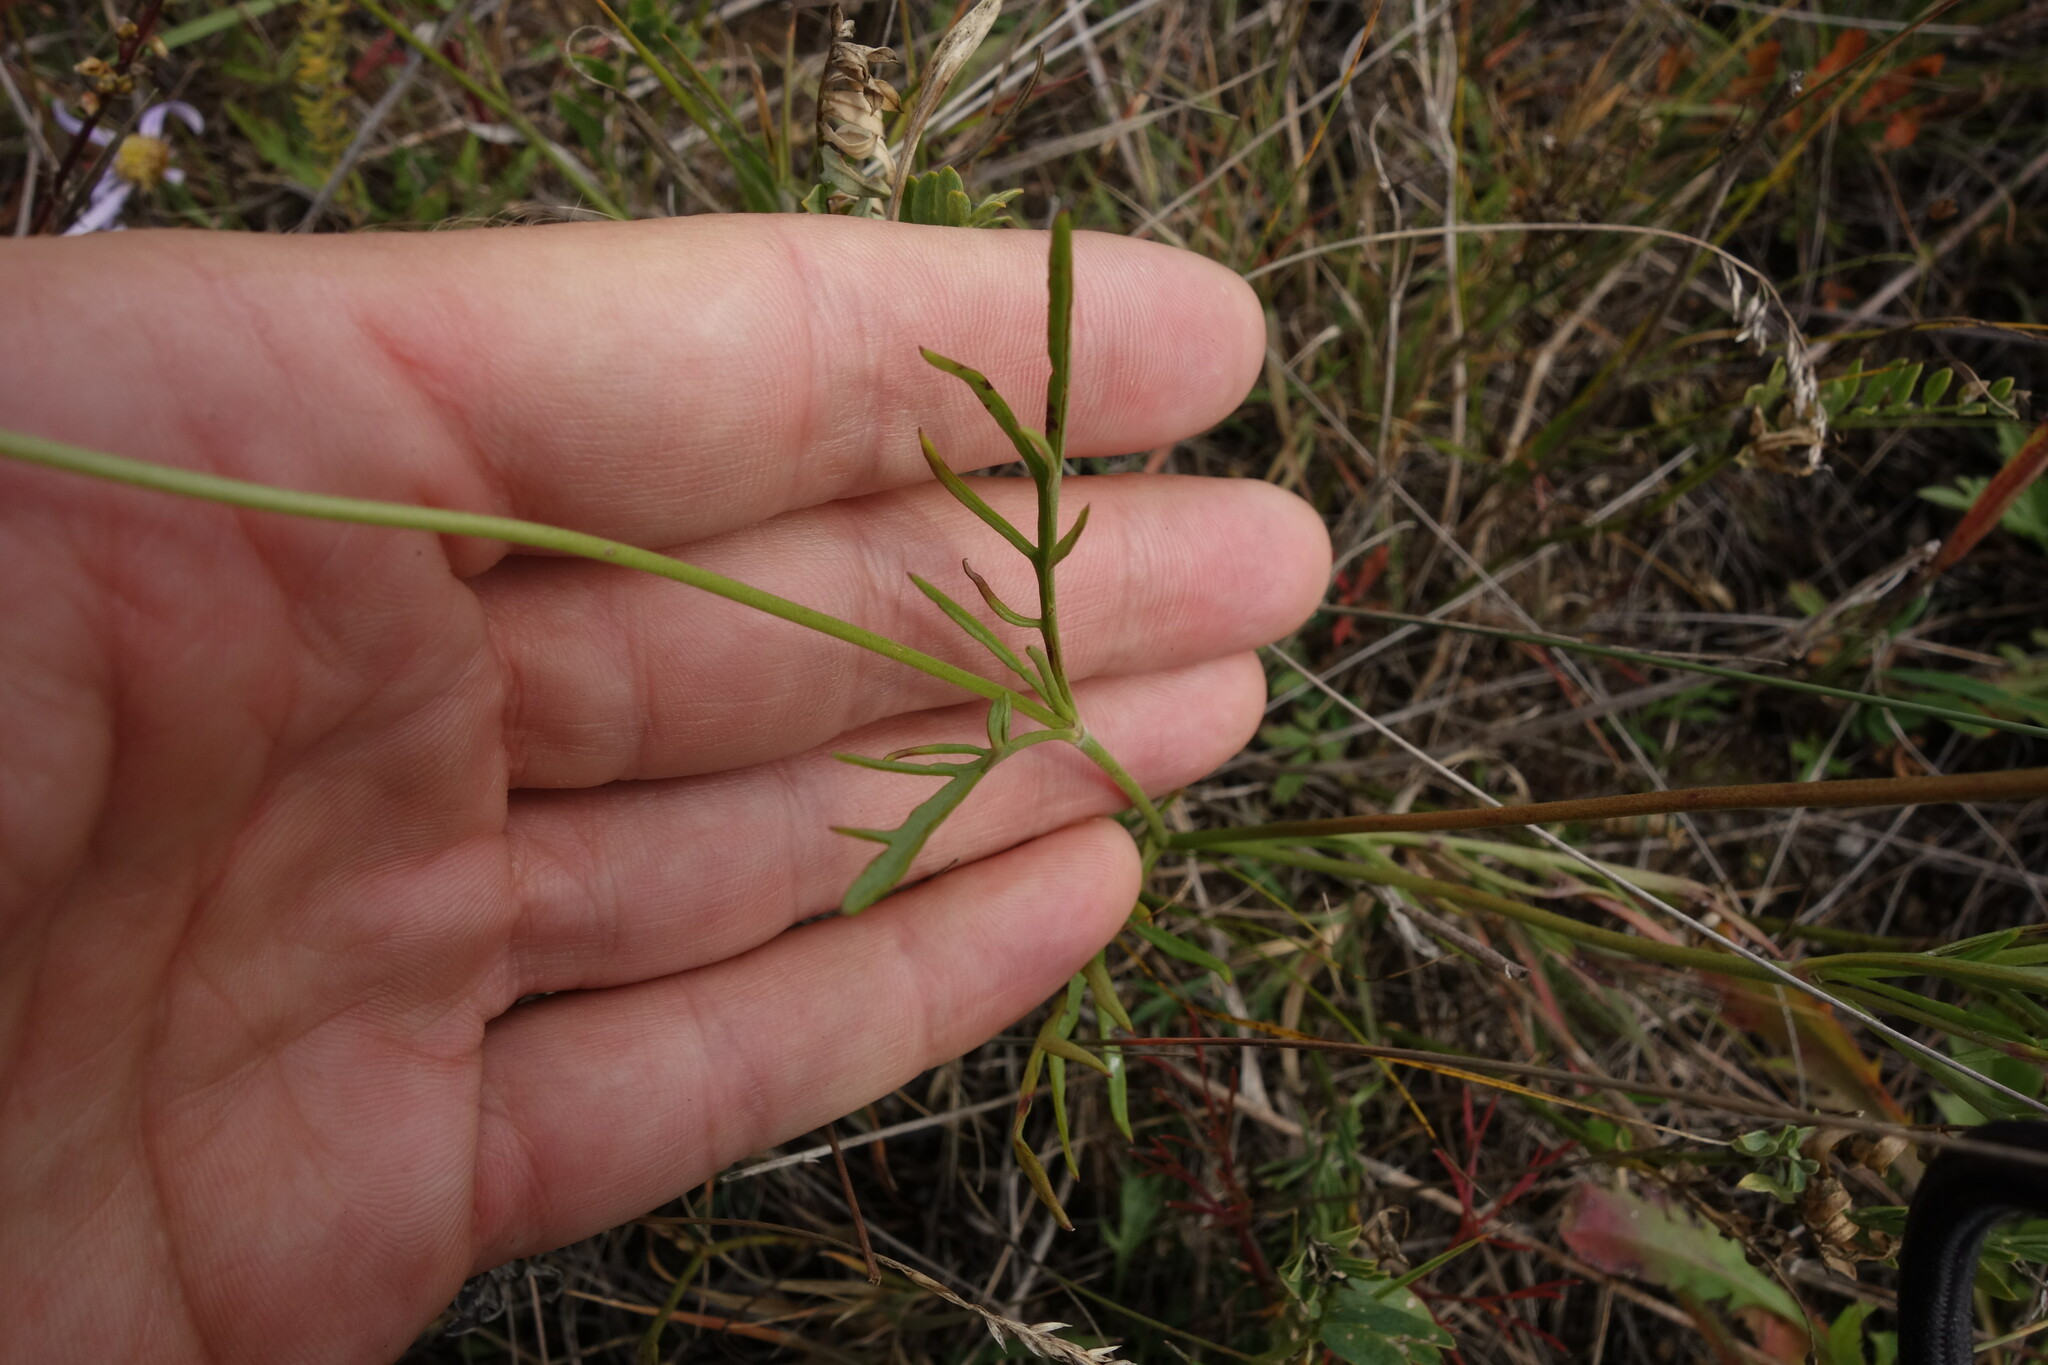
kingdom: Plantae
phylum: Tracheophyta
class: Magnoliopsida
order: Dipsacales
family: Caprifoliaceae
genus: Scabiosa
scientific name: Scabiosa comosa
